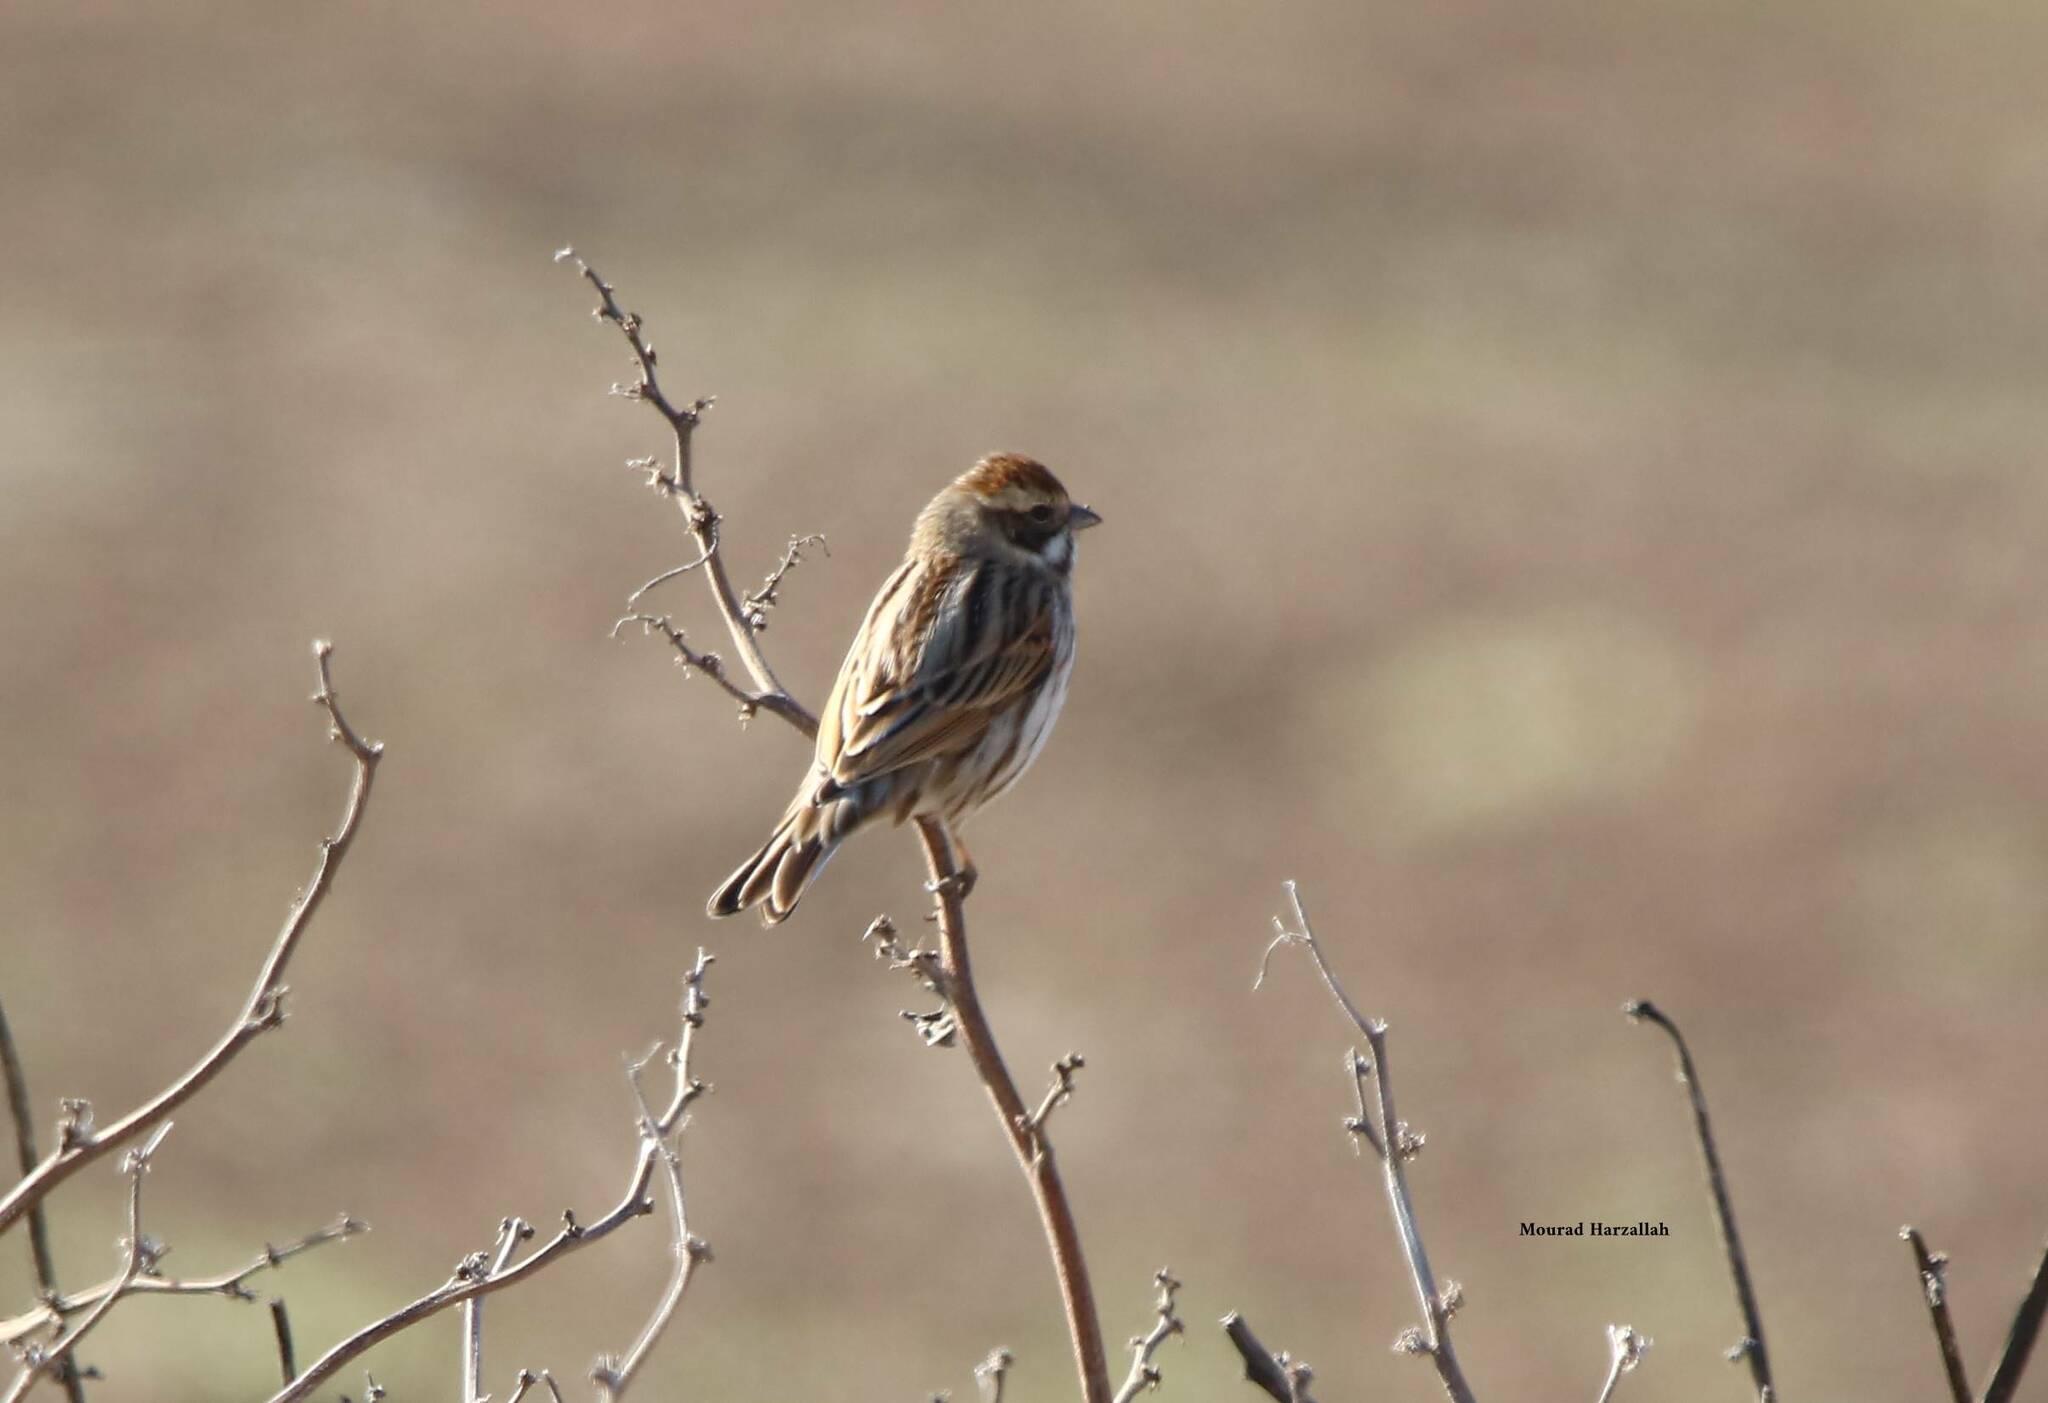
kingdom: Animalia
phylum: Chordata
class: Aves
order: Passeriformes
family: Emberizidae
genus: Emberiza
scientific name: Emberiza schoeniclus
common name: Reed bunting
